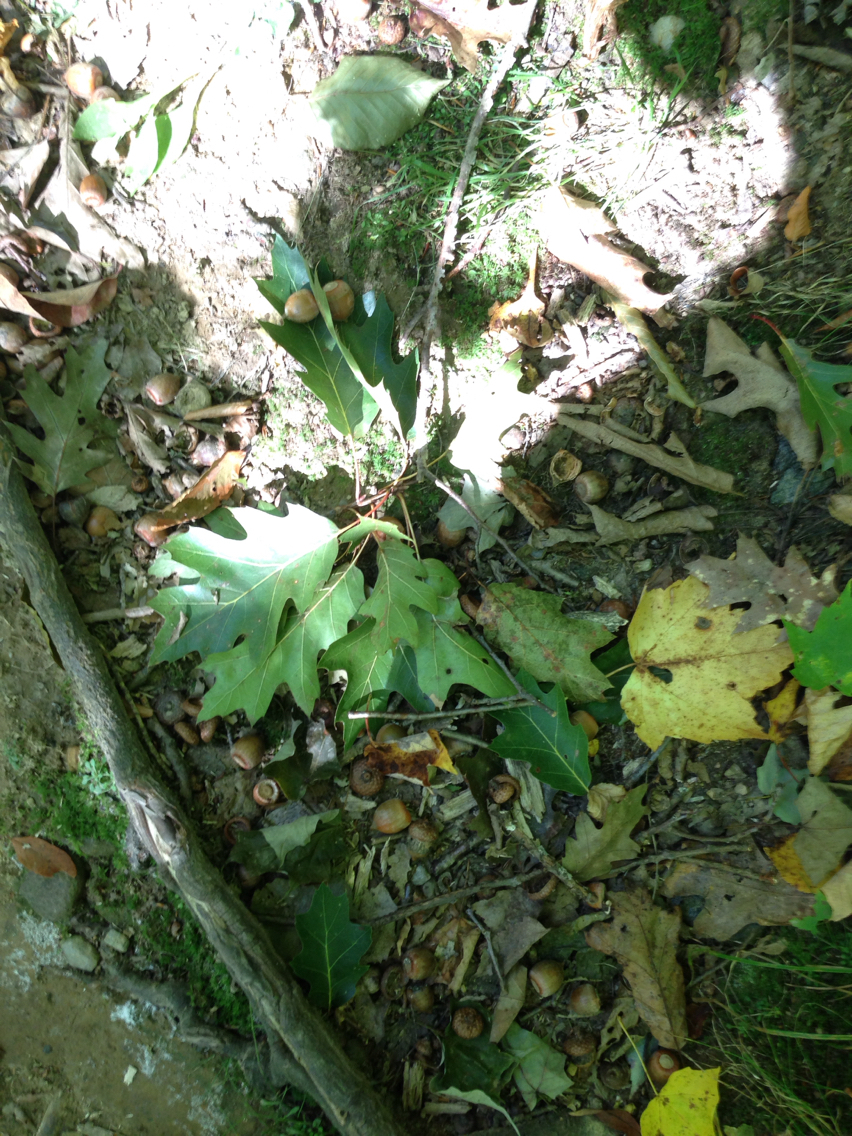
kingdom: Plantae
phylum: Tracheophyta
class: Magnoliopsida
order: Fagales
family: Fagaceae
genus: Quercus
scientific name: Quercus rubra
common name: Red oak
